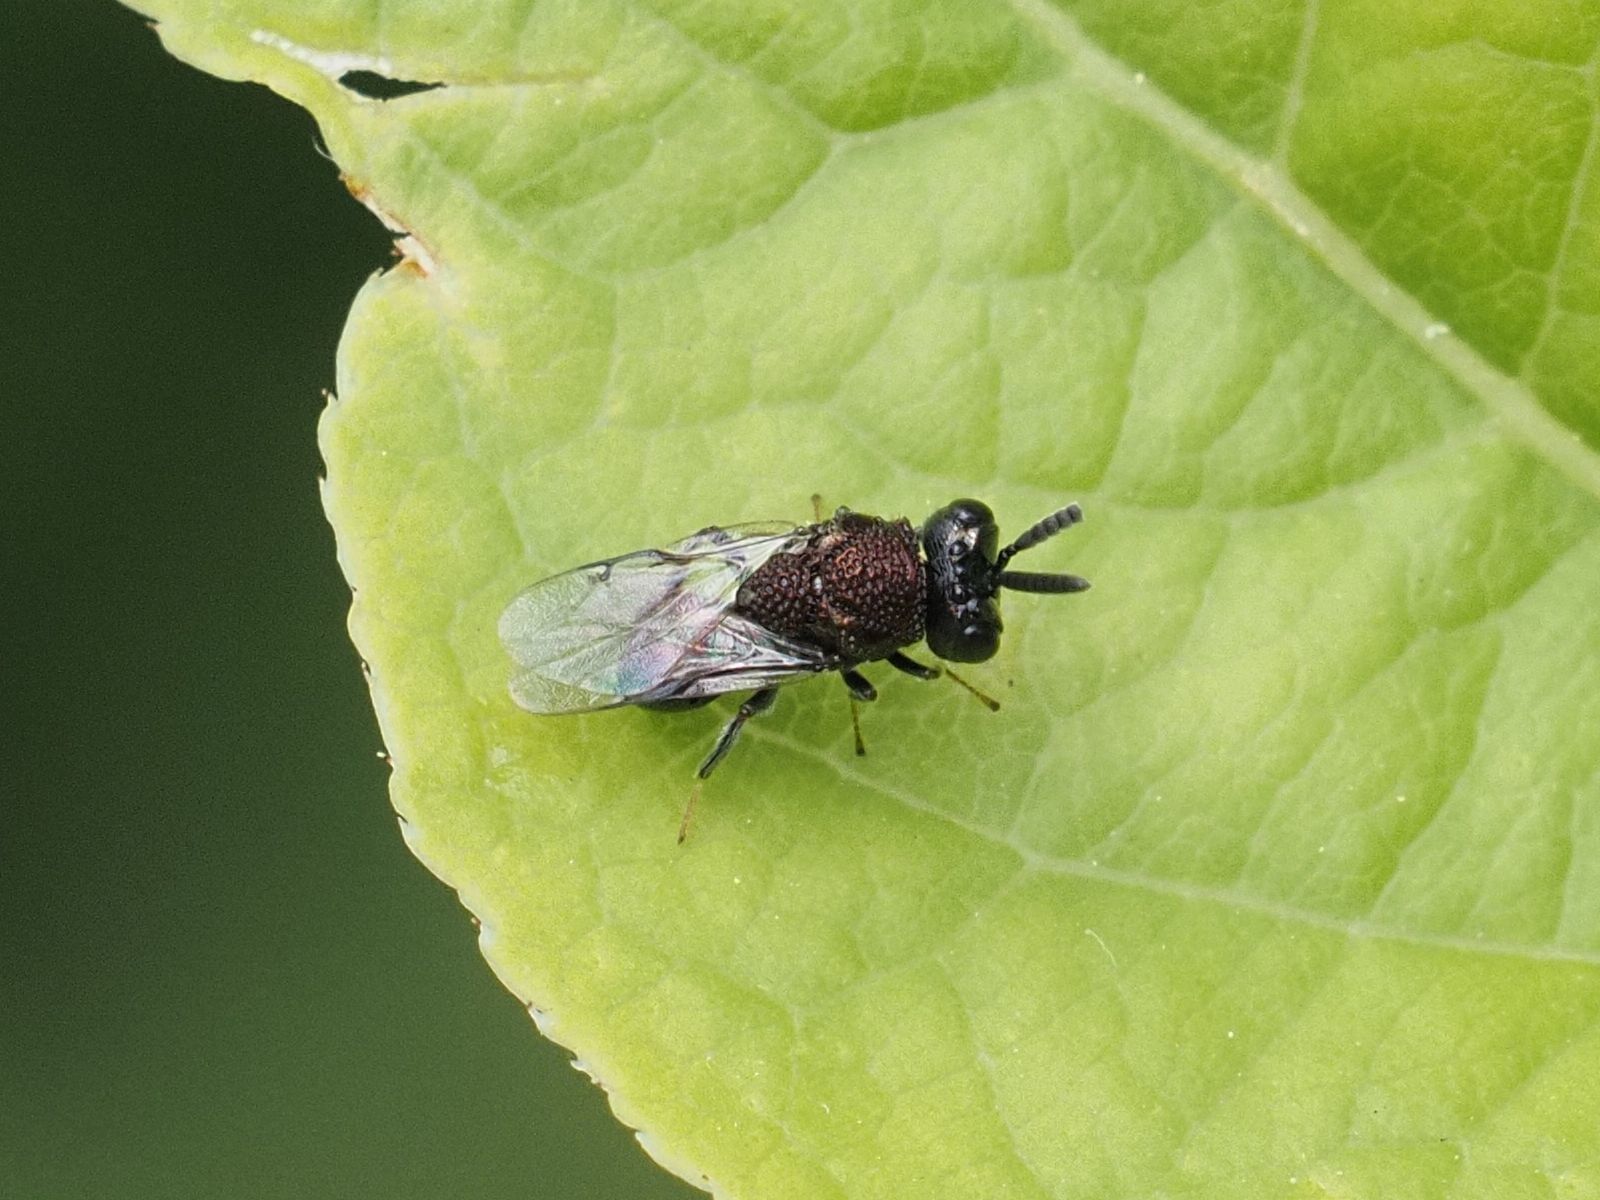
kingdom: Animalia
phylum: Arthropoda
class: Insecta
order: Hymenoptera
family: Perilampidae
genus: Perilampus
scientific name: Perilampus aeneus
